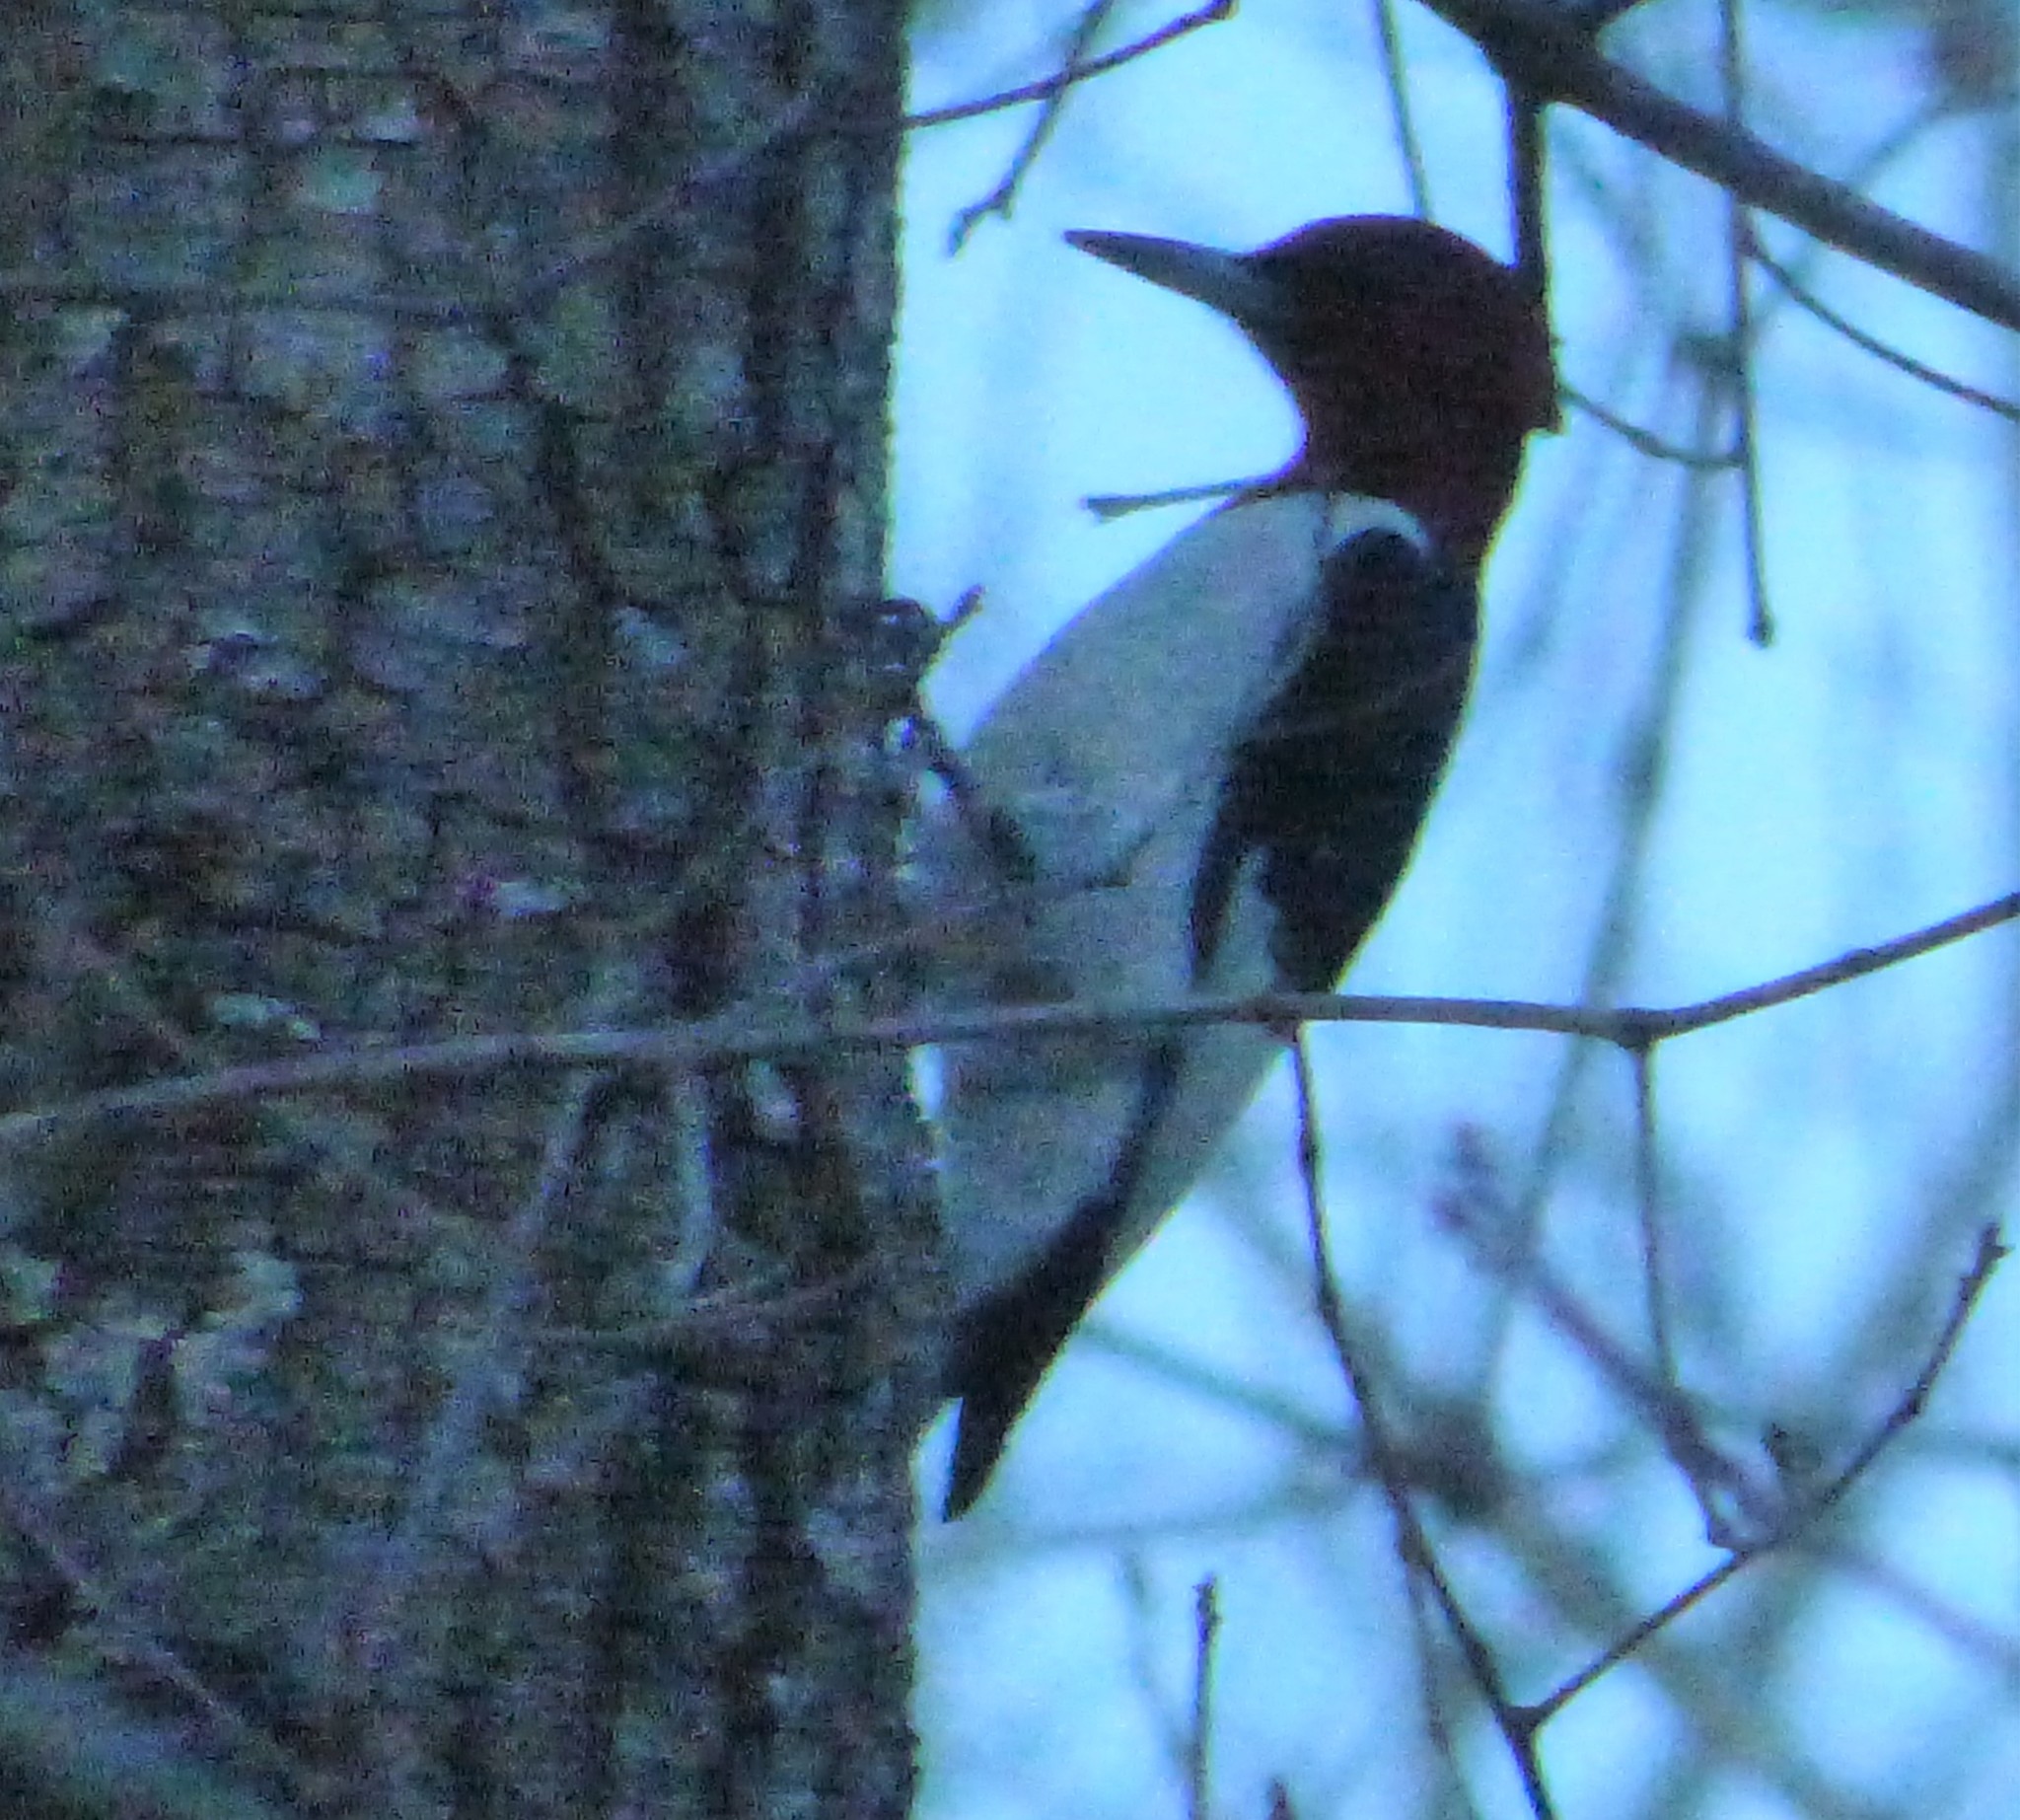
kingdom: Animalia
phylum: Chordata
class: Aves
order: Piciformes
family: Picidae
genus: Melanerpes
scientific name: Melanerpes erythrocephalus
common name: Red-headed woodpecker
